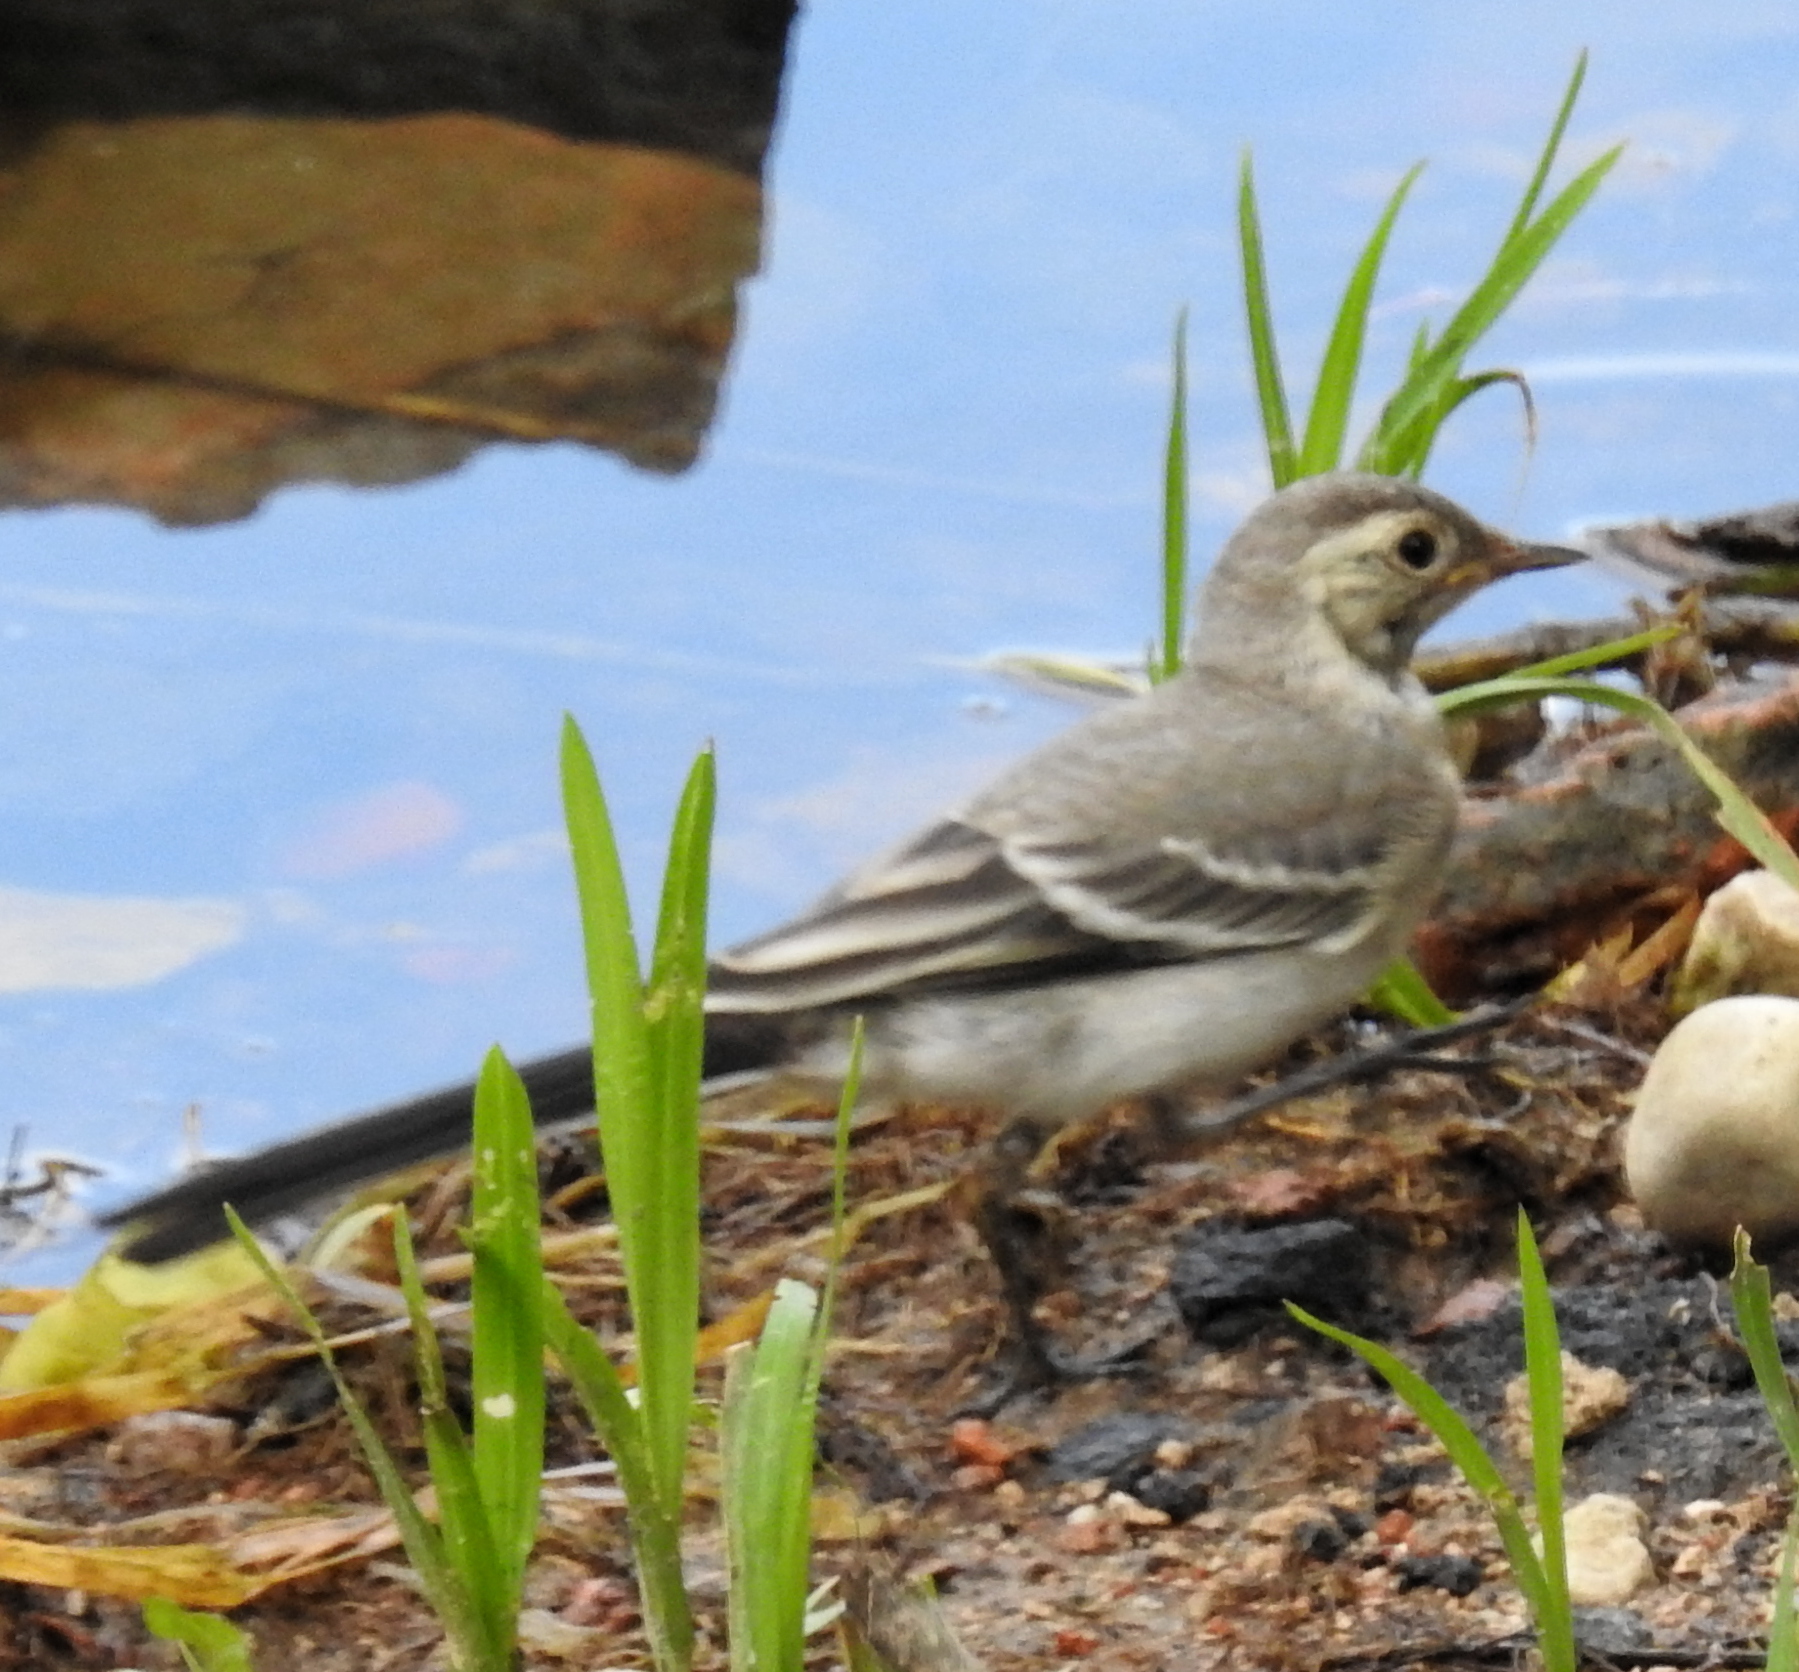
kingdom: Animalia
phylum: Chordata
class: Aves
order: Passeriformes
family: Motacillidae
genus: Motacilla
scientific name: Motacilla alba
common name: White wagtail
